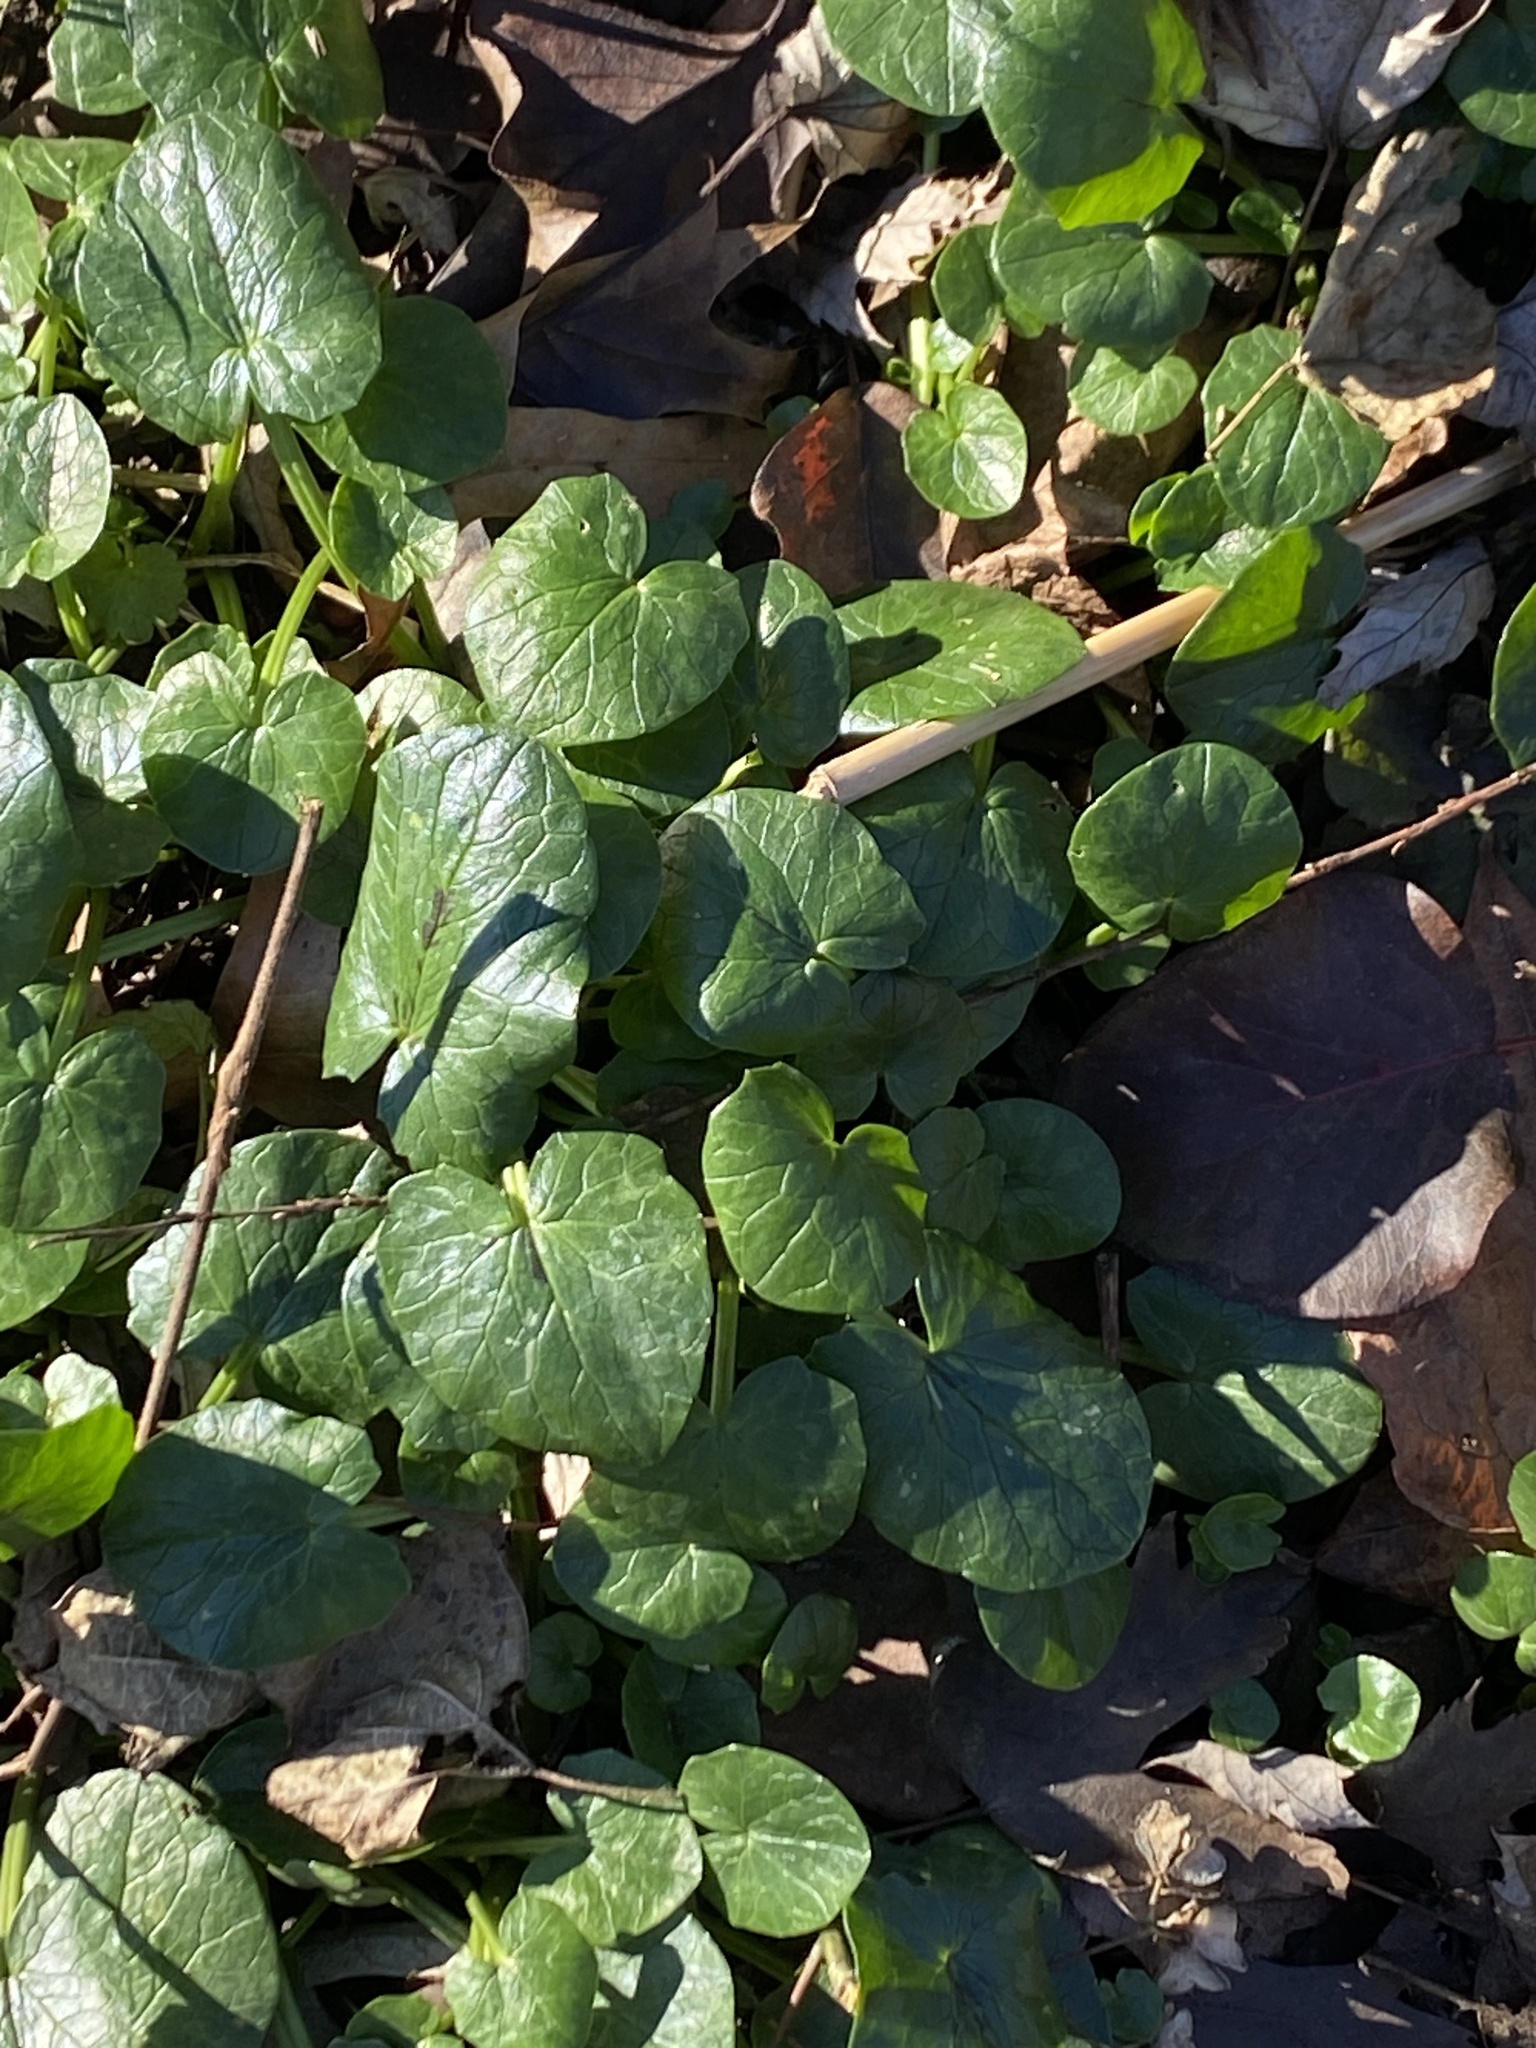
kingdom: Plantae
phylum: Tracheophyta
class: Magnoliopsida
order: Ranunculales
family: Ranunculaceae
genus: Ficaria
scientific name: Ficaria verna
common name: Lesser celandine
